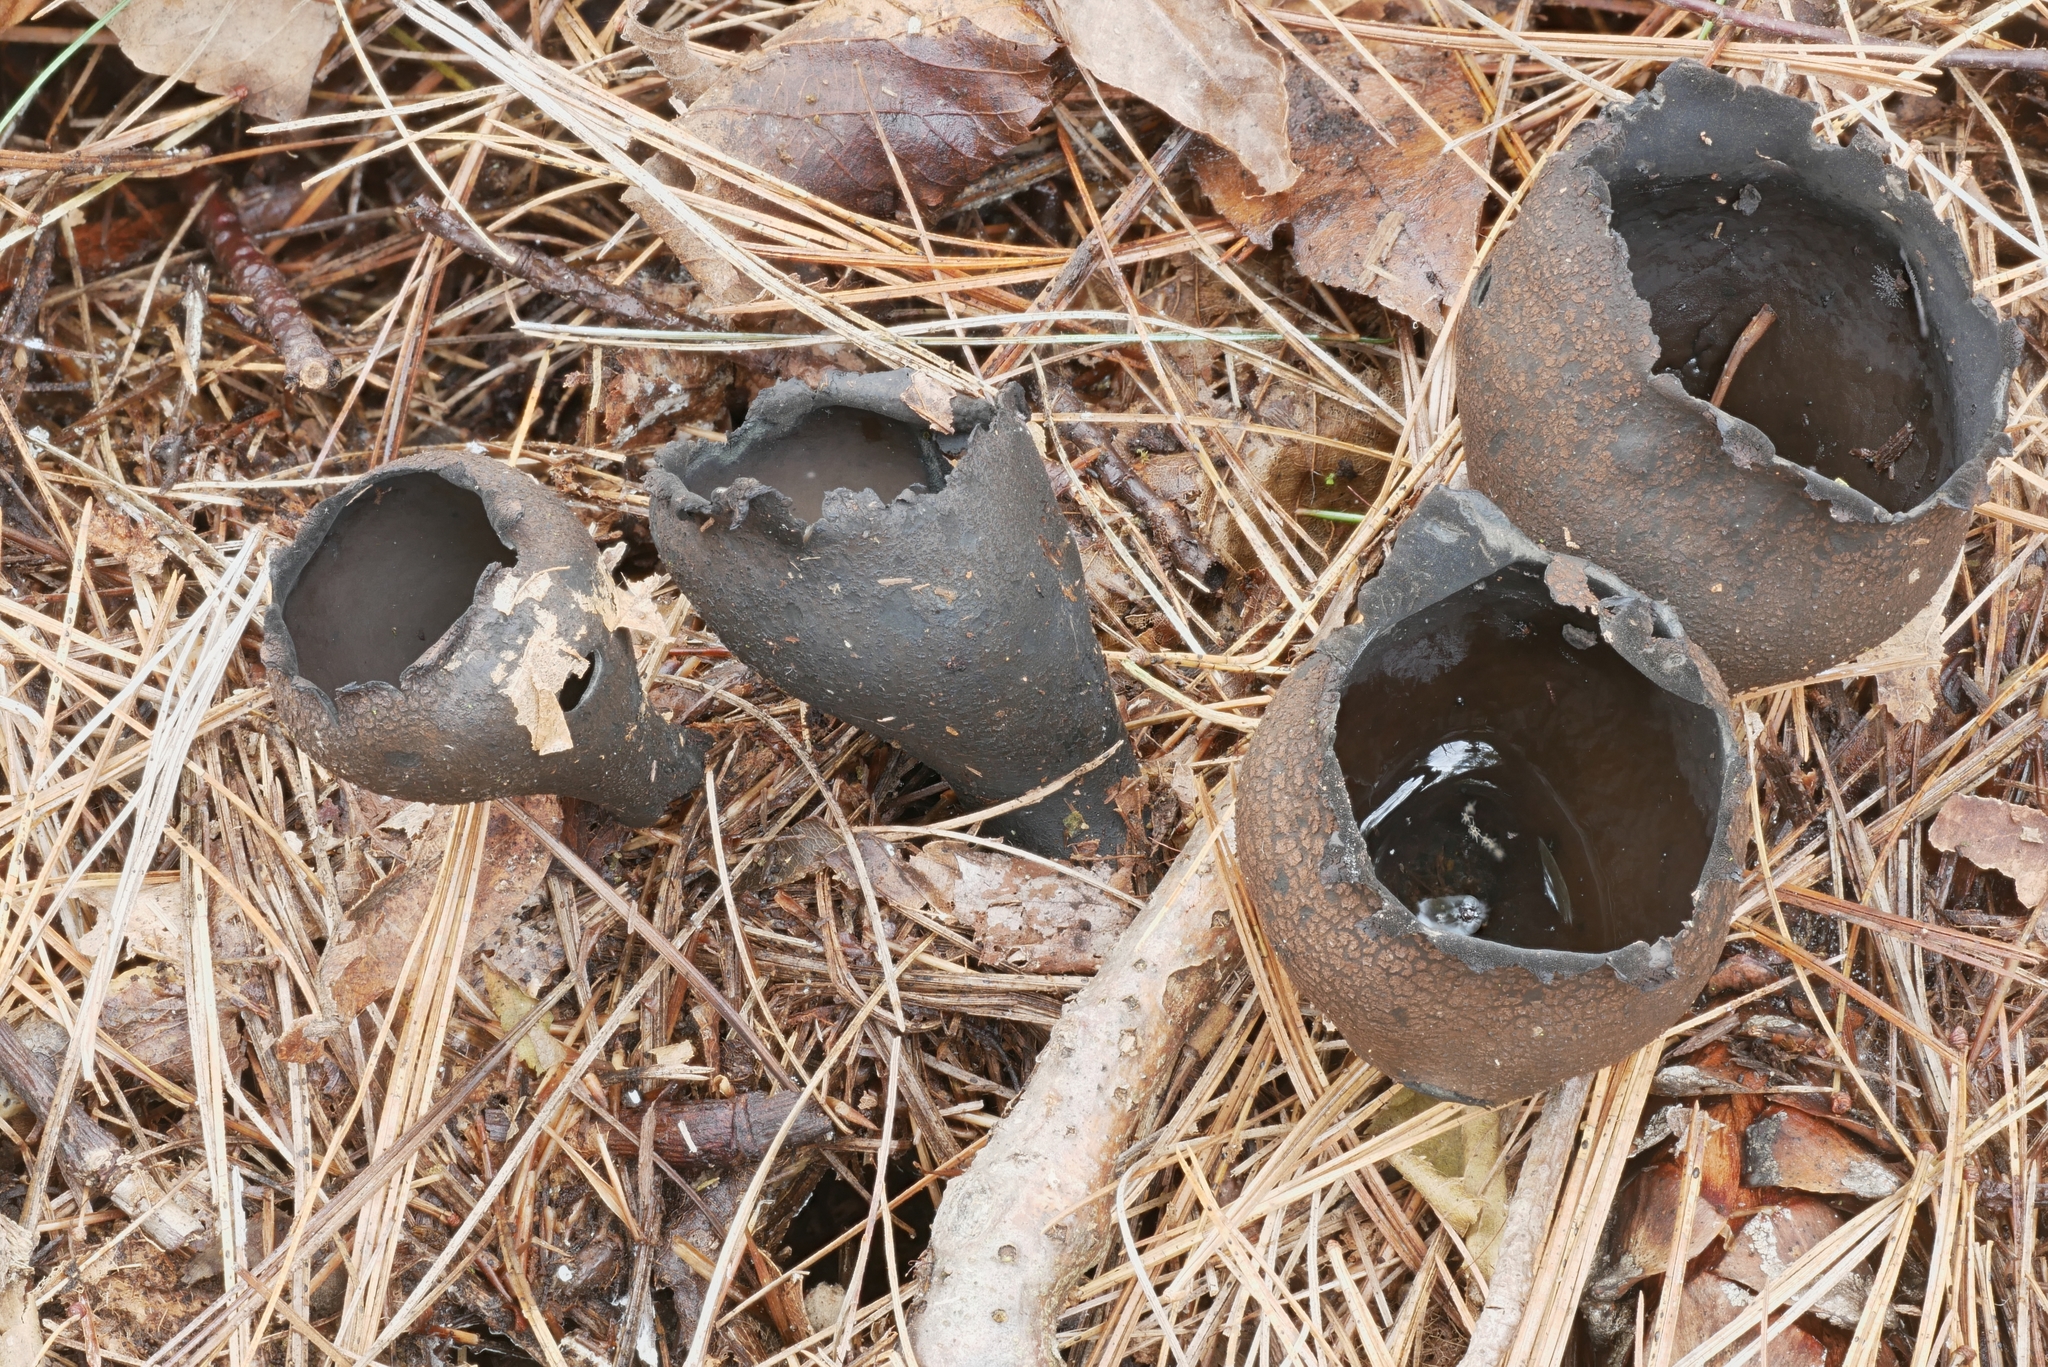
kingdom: Fungi
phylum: Ascomycota
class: Pezizomycetes
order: Pezizales
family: Sarcosomataceae
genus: Urnula
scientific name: Urnula craterium
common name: Devil's urn
